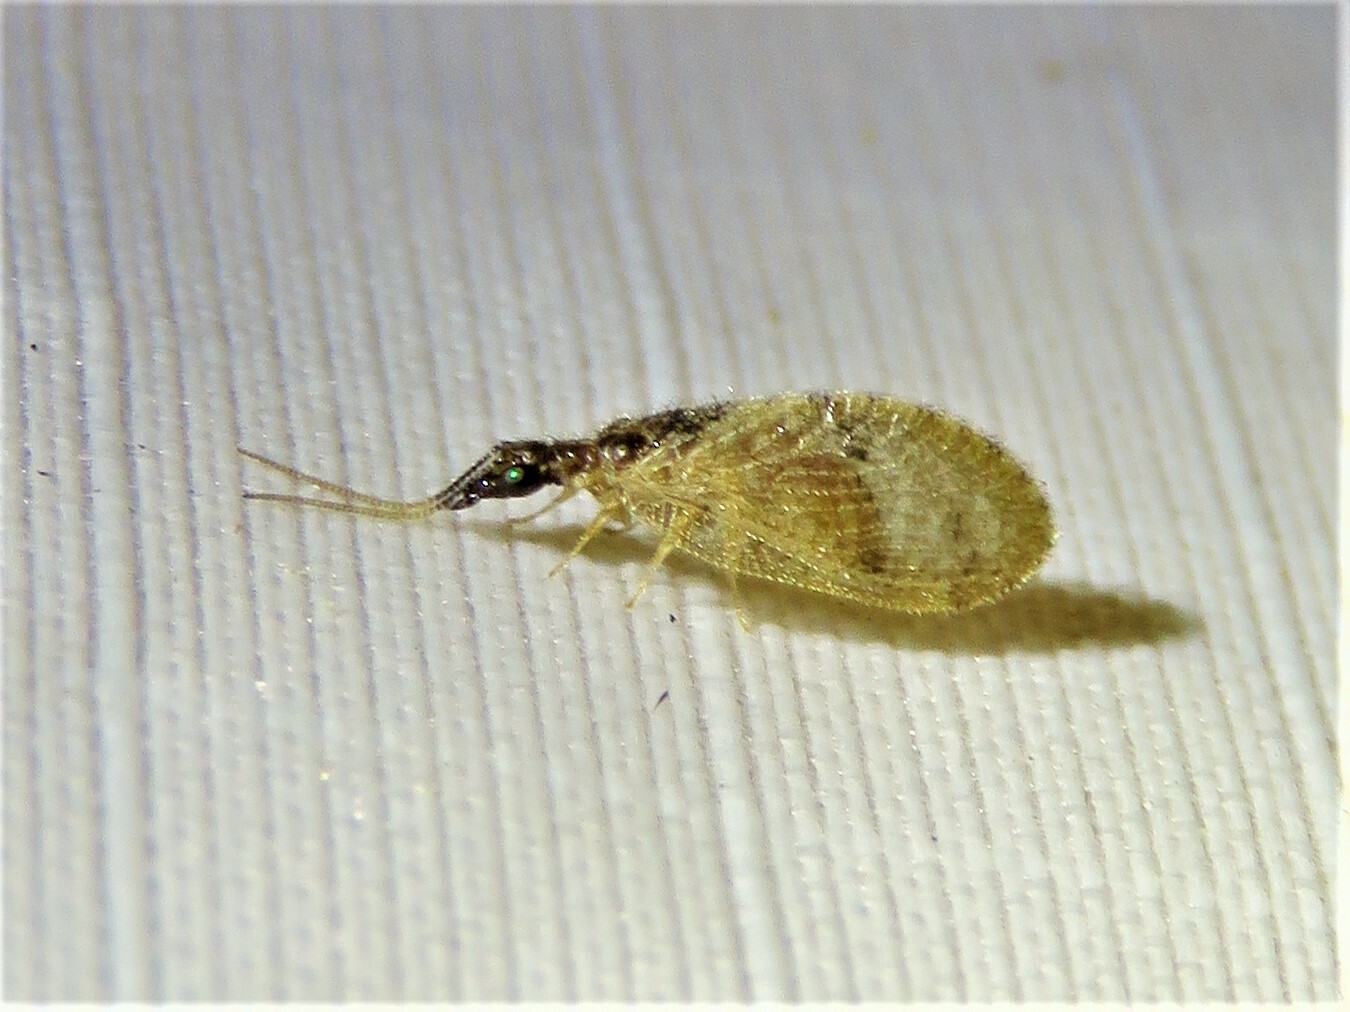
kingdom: Animalia
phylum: Arthropoda
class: Insecta
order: Neuroptera
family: Hemerobiidae
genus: Sympherobius
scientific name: Sympherobius barberi
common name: Brown lacewing
